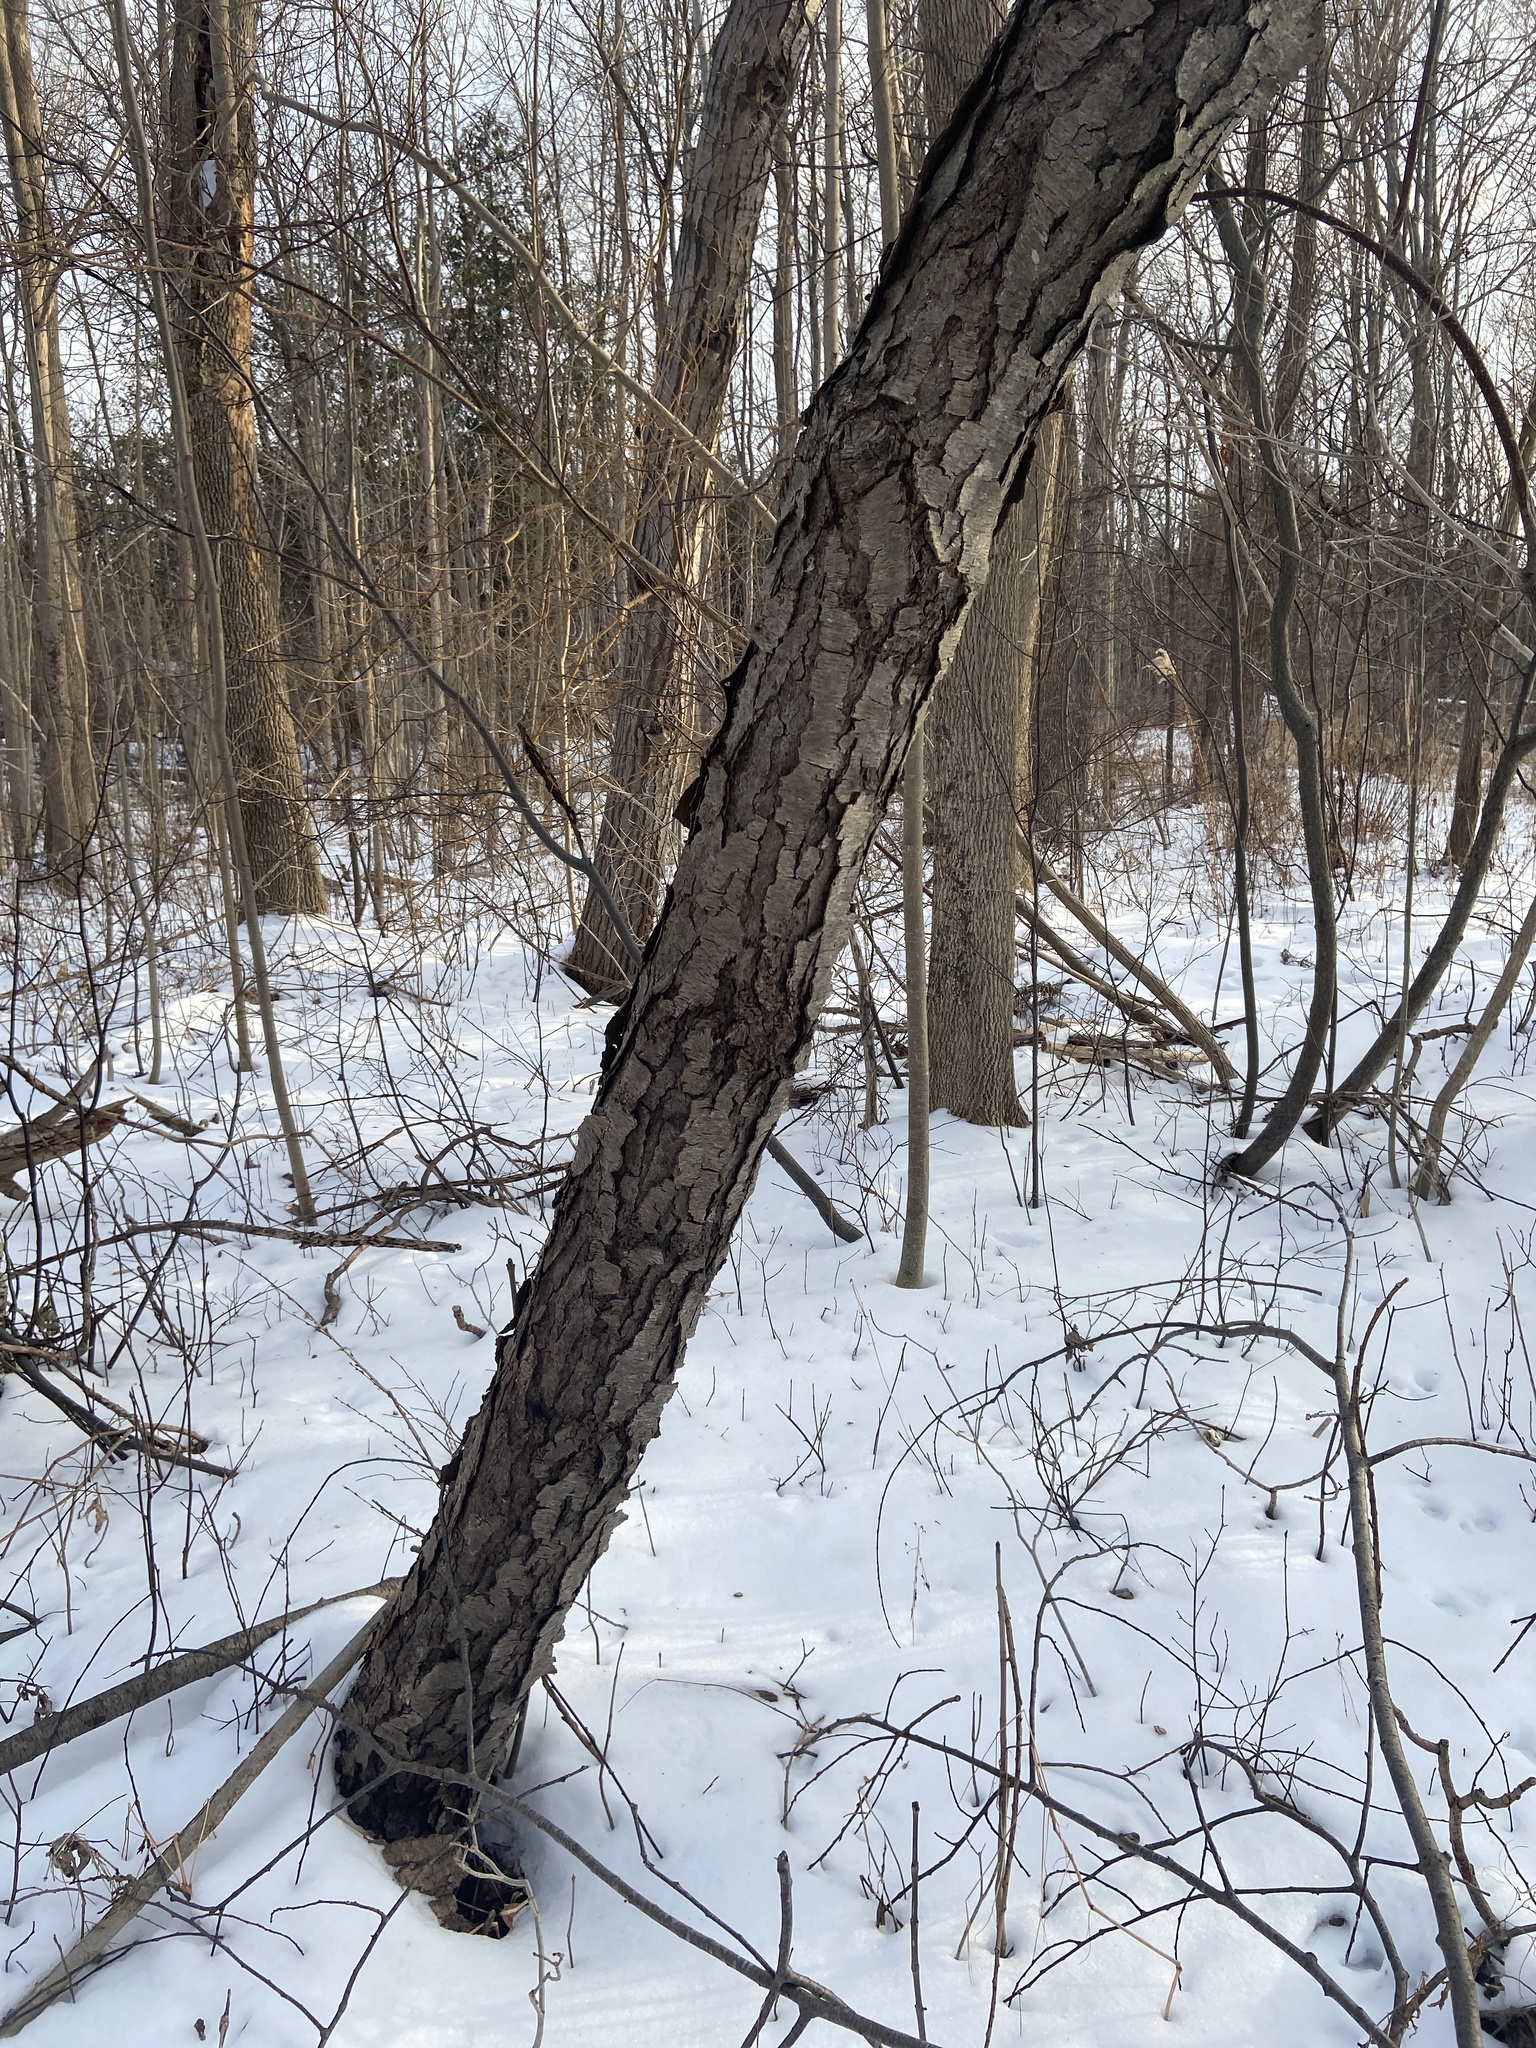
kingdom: Plantae
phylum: Tracheophyta
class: Magnoliopsida
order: Rosales
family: Rosaceae
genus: Prunus
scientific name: Prunus serotina
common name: Black cherry
